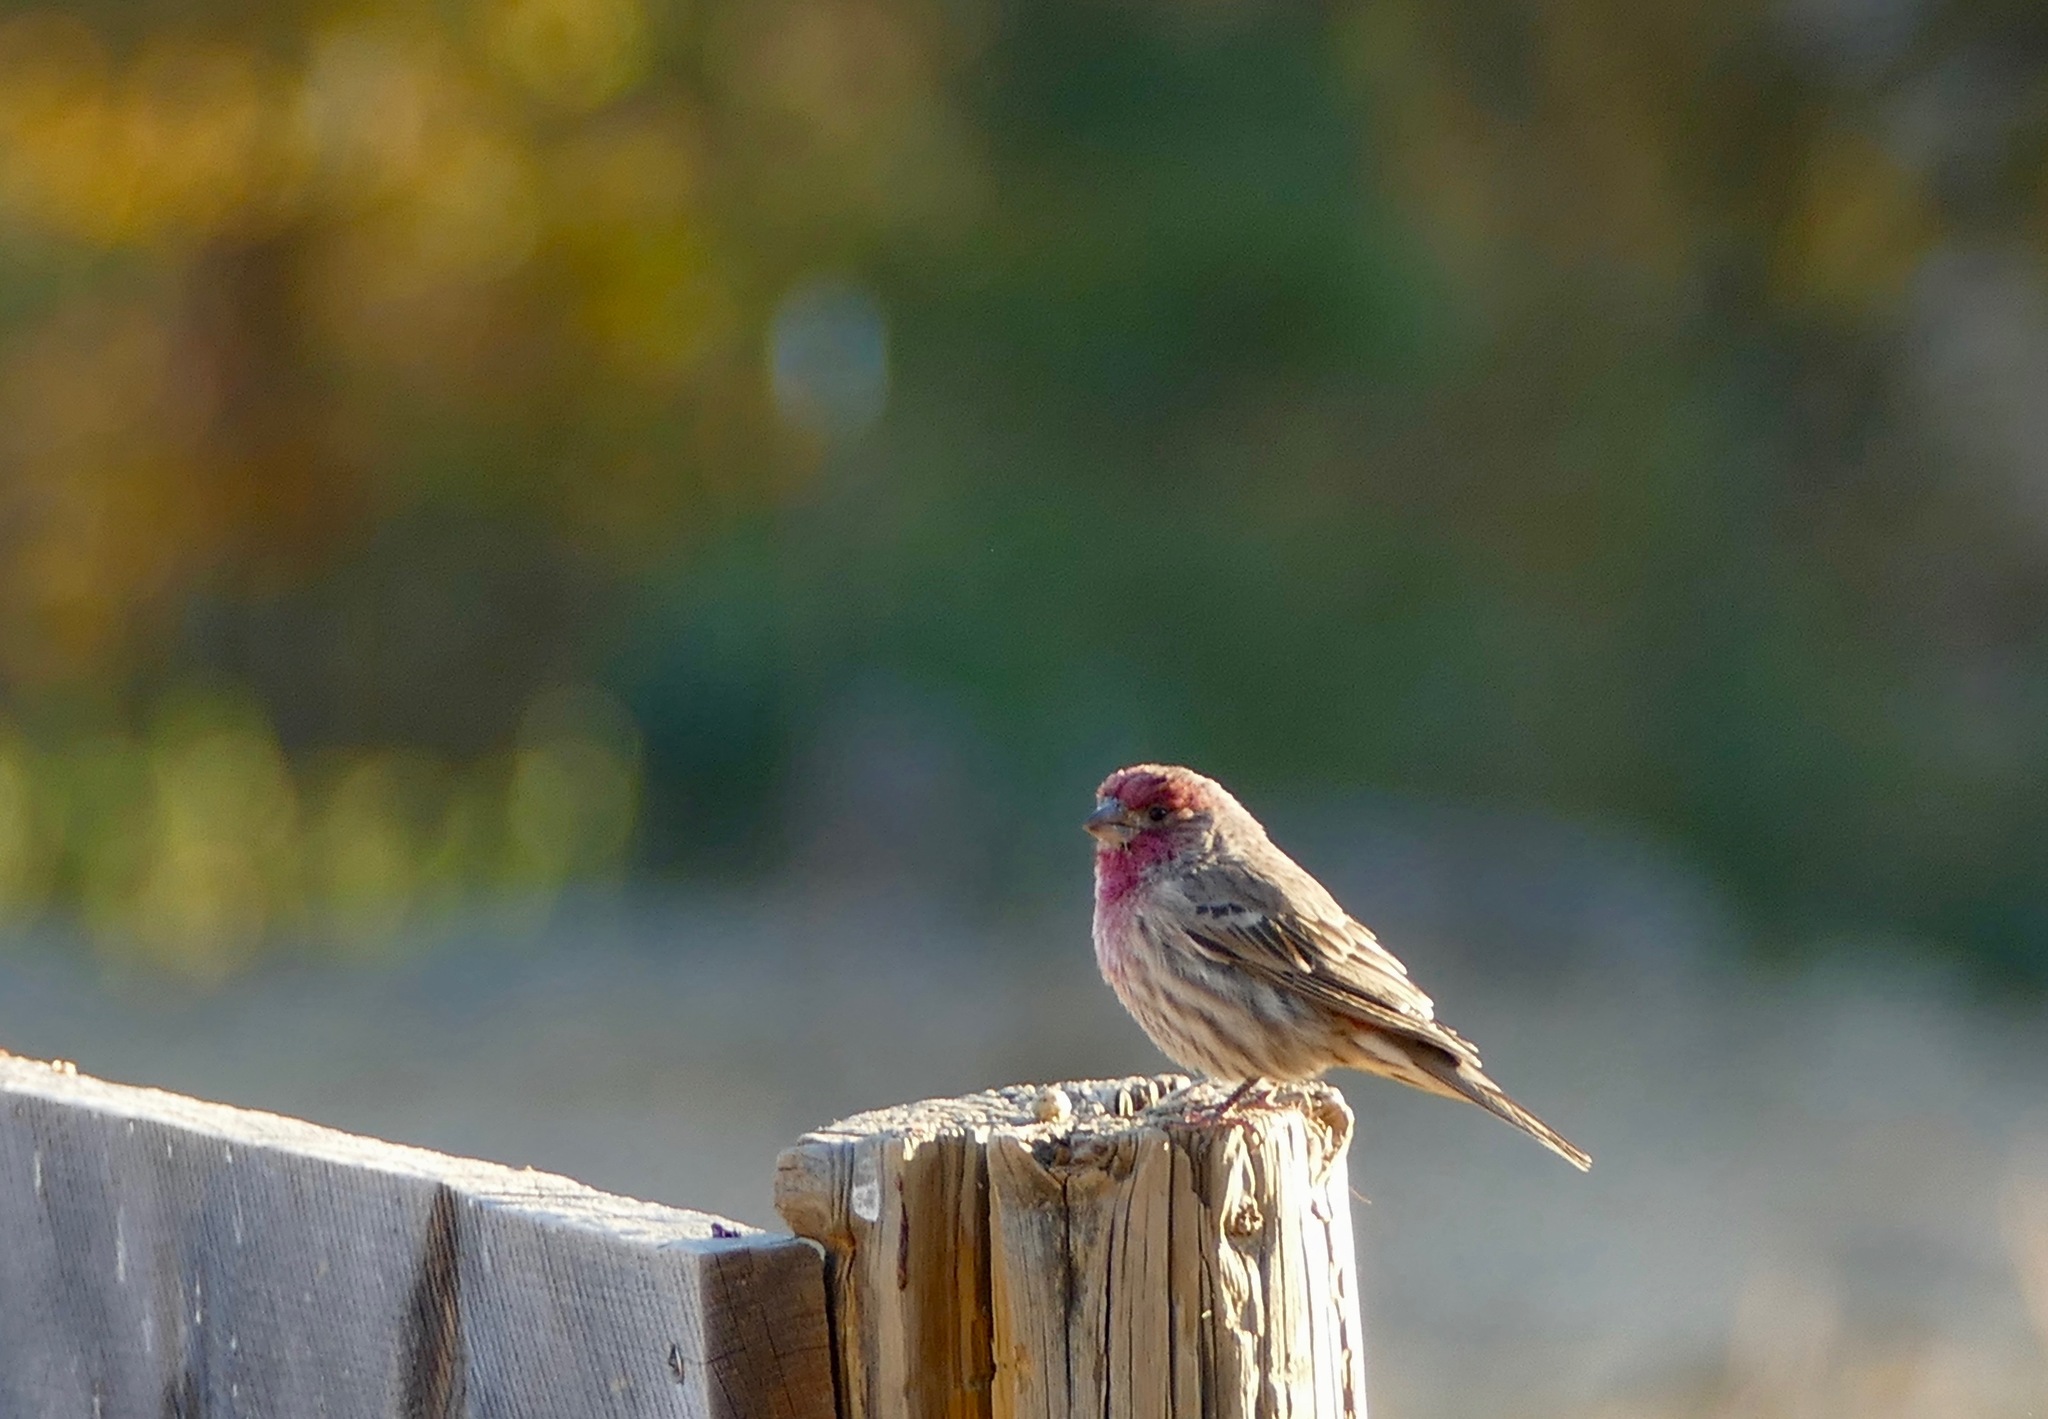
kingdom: Animalia
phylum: Chordata
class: Aves
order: Passeriformes
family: Fringillidae
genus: Haemorhous
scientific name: Haemorhous mexicanus
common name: House finch
